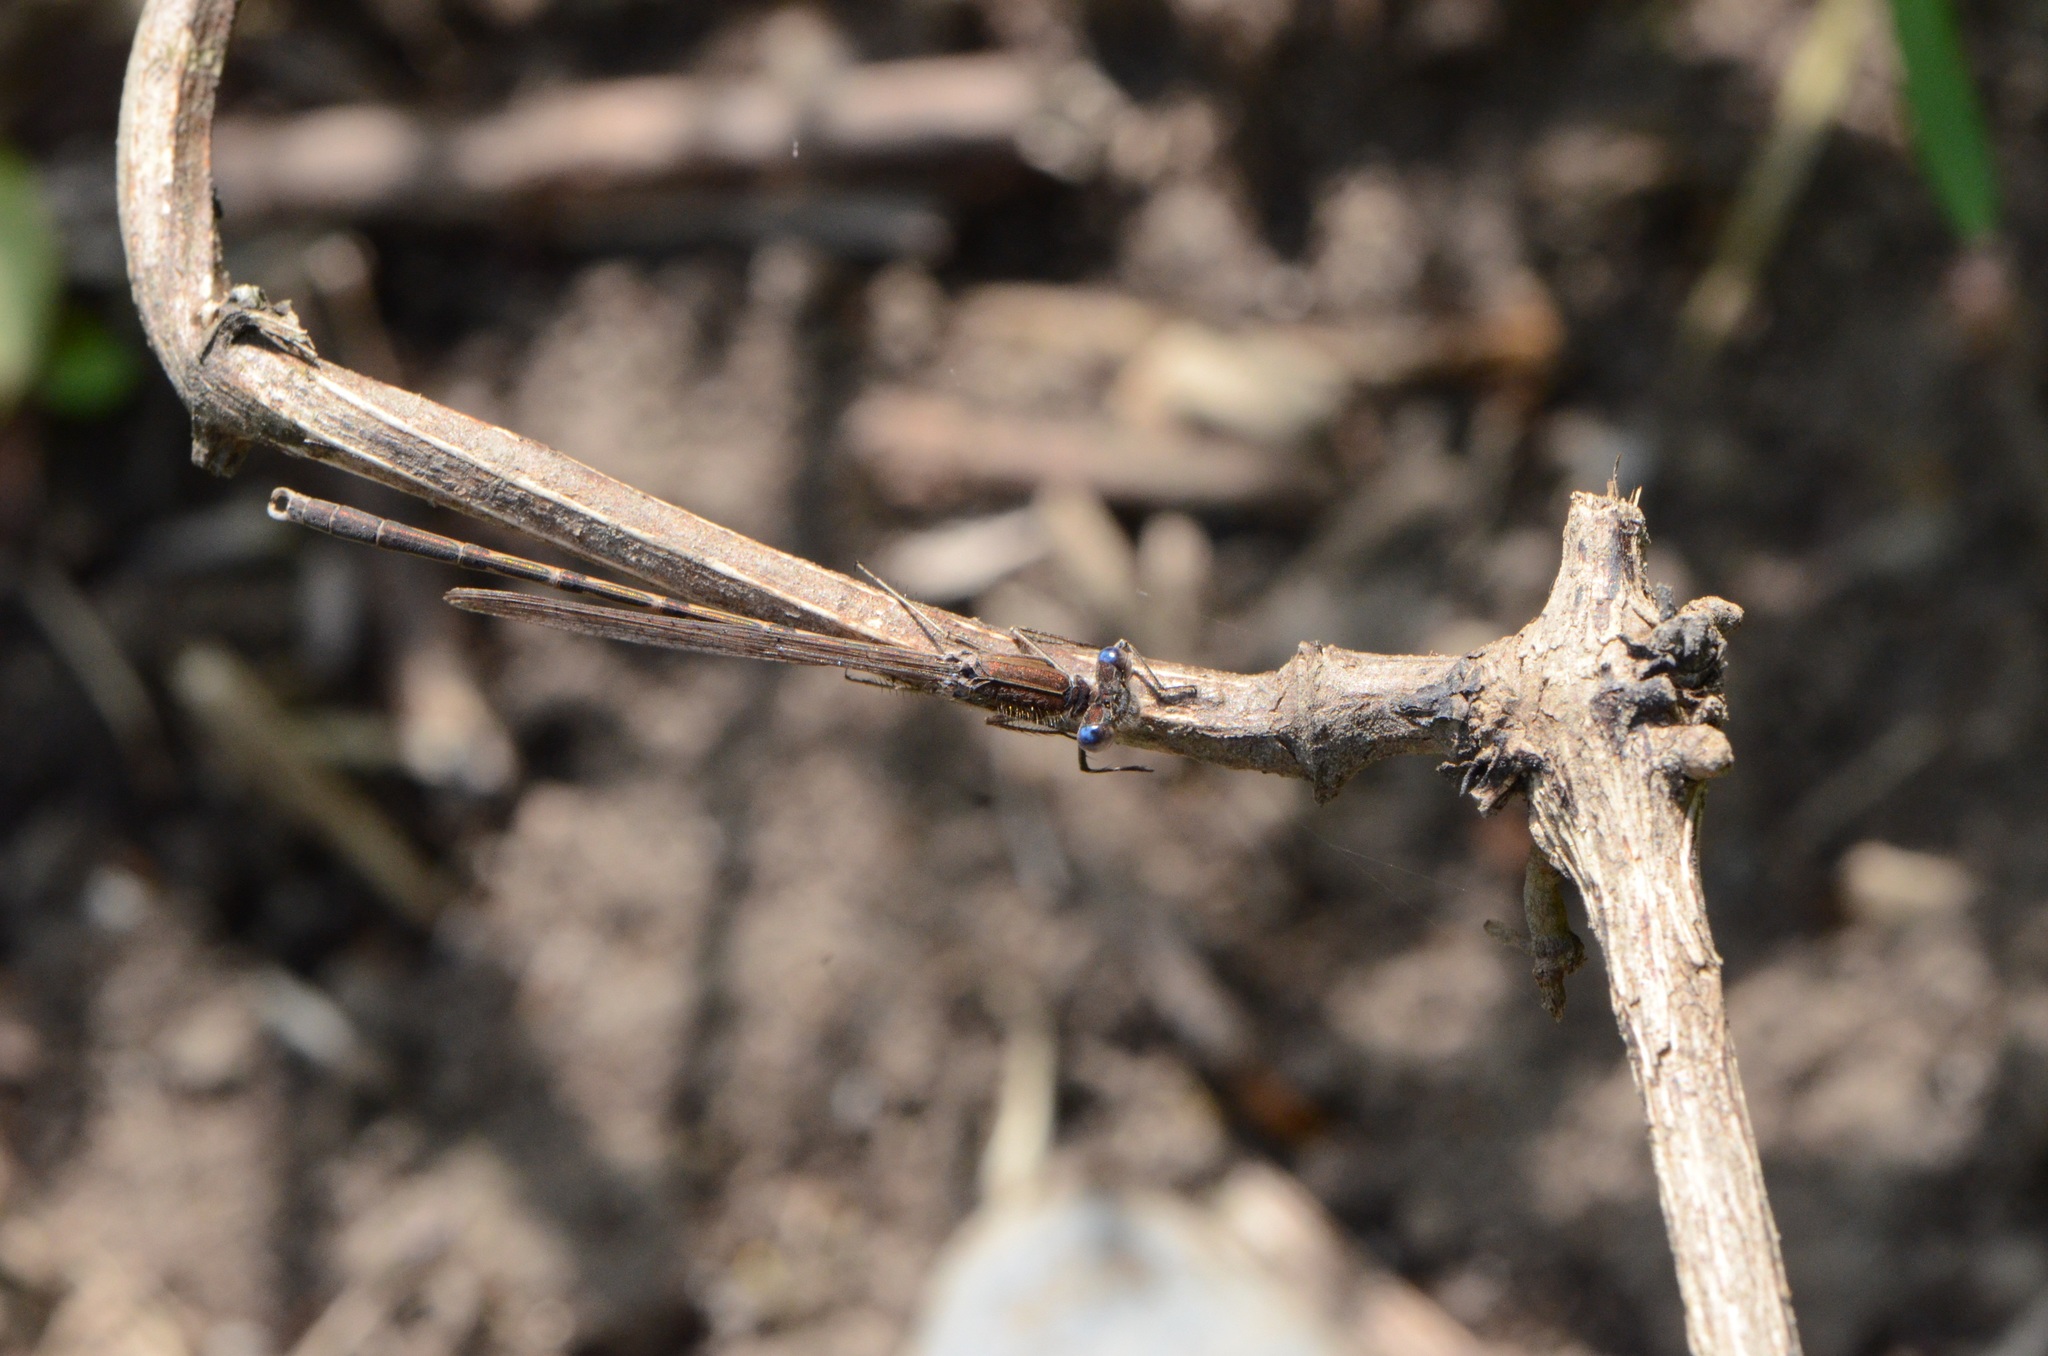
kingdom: Animalia
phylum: Arthropoda
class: Insecta
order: Odonata
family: Lestidae
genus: Sympecma
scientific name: Sympecma fusca
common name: Common winter damsel
